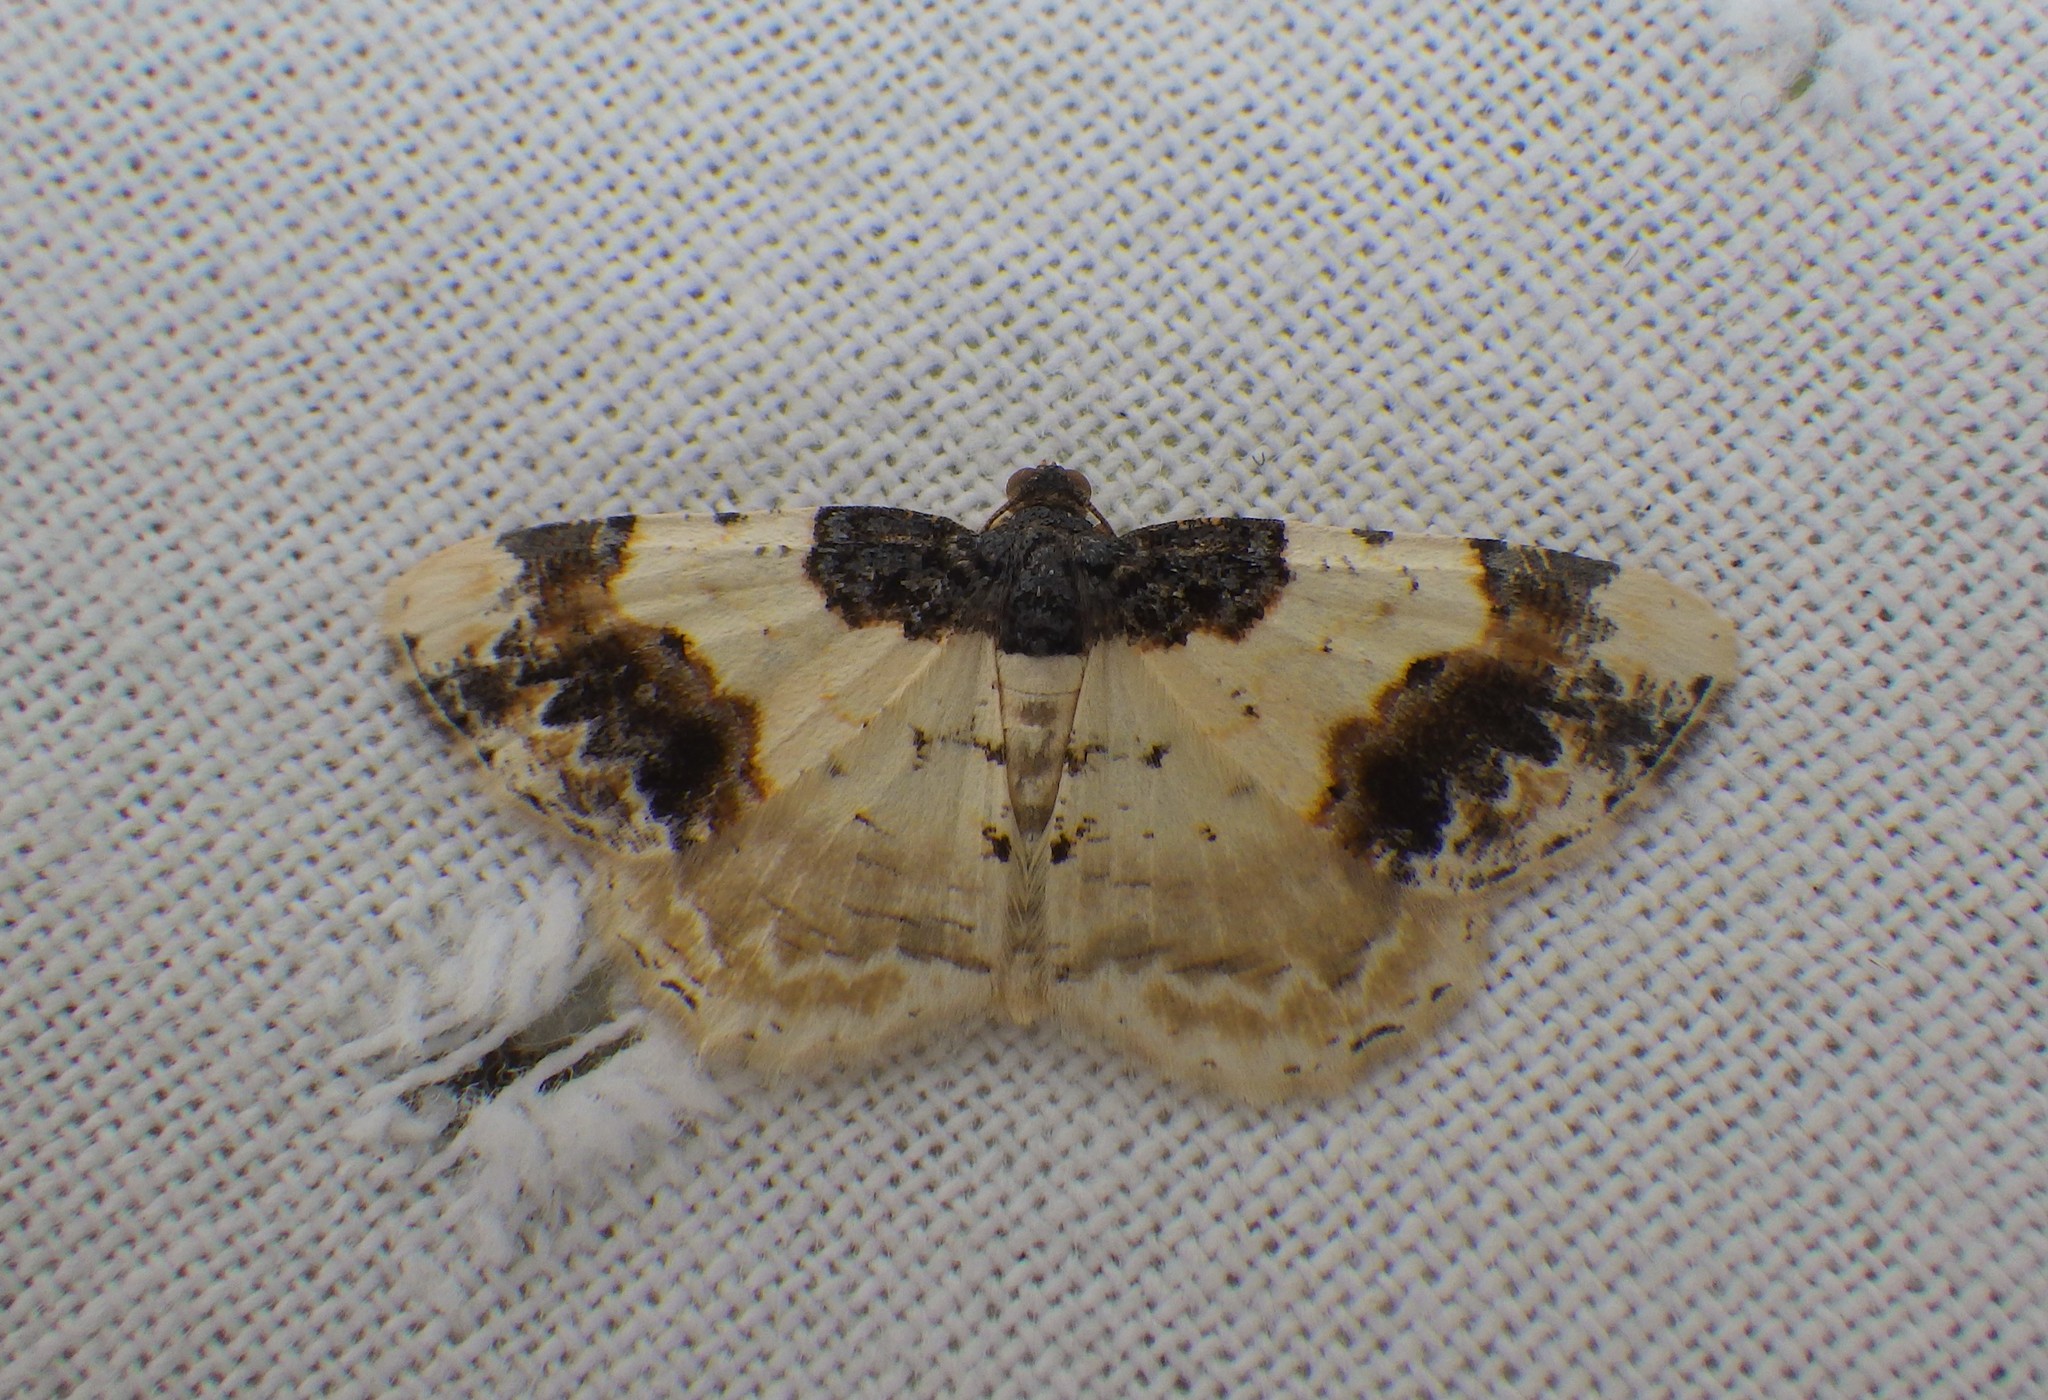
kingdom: Animalia
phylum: Arthropoda
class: Insecta
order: Lepidoptera
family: Geometridae
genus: Ligdia
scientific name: Ligdia adustata
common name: Scorched carpet
